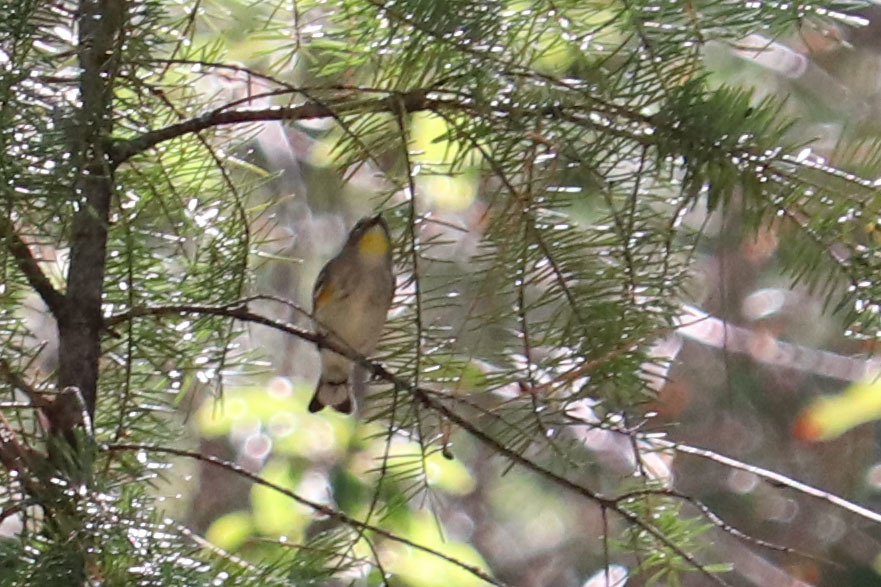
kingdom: Animalia
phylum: Chordata
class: Aves
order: Passeriformes
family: Parulidae
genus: Setophaga
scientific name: Setophaga coronata
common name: Myrtle warbler
